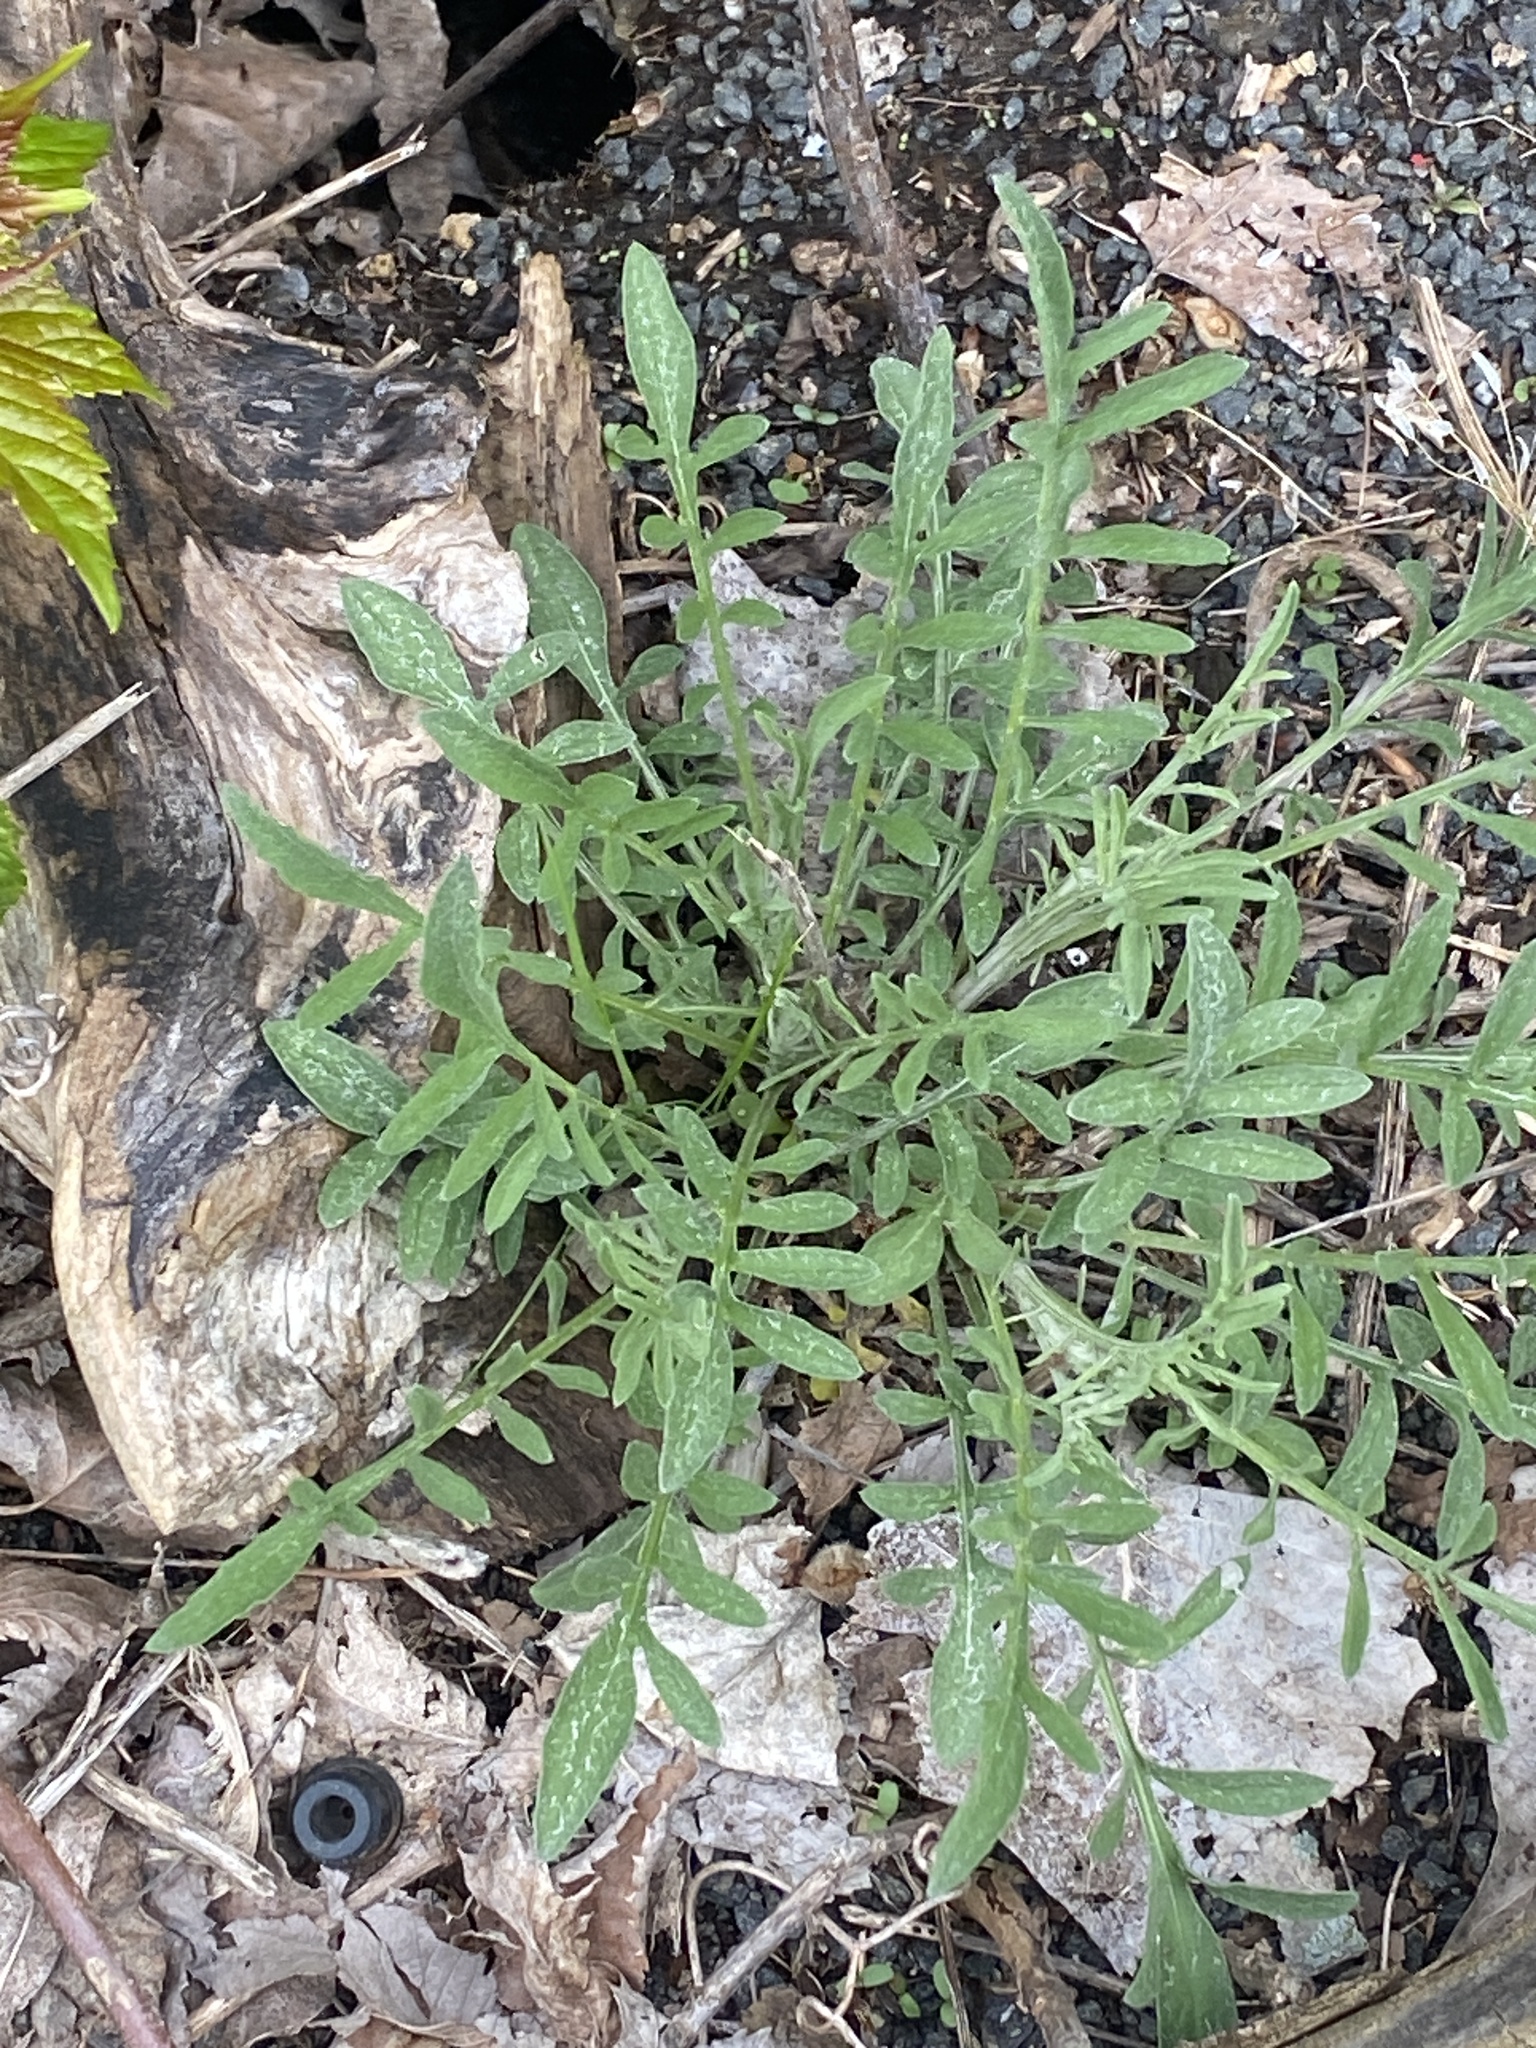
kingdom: Plantae
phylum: Tracheophyta
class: Magnoliopsida
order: Asterales
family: Asteraceae
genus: Centaurea
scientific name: Centaurea stoebe
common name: Spotted knapweed
